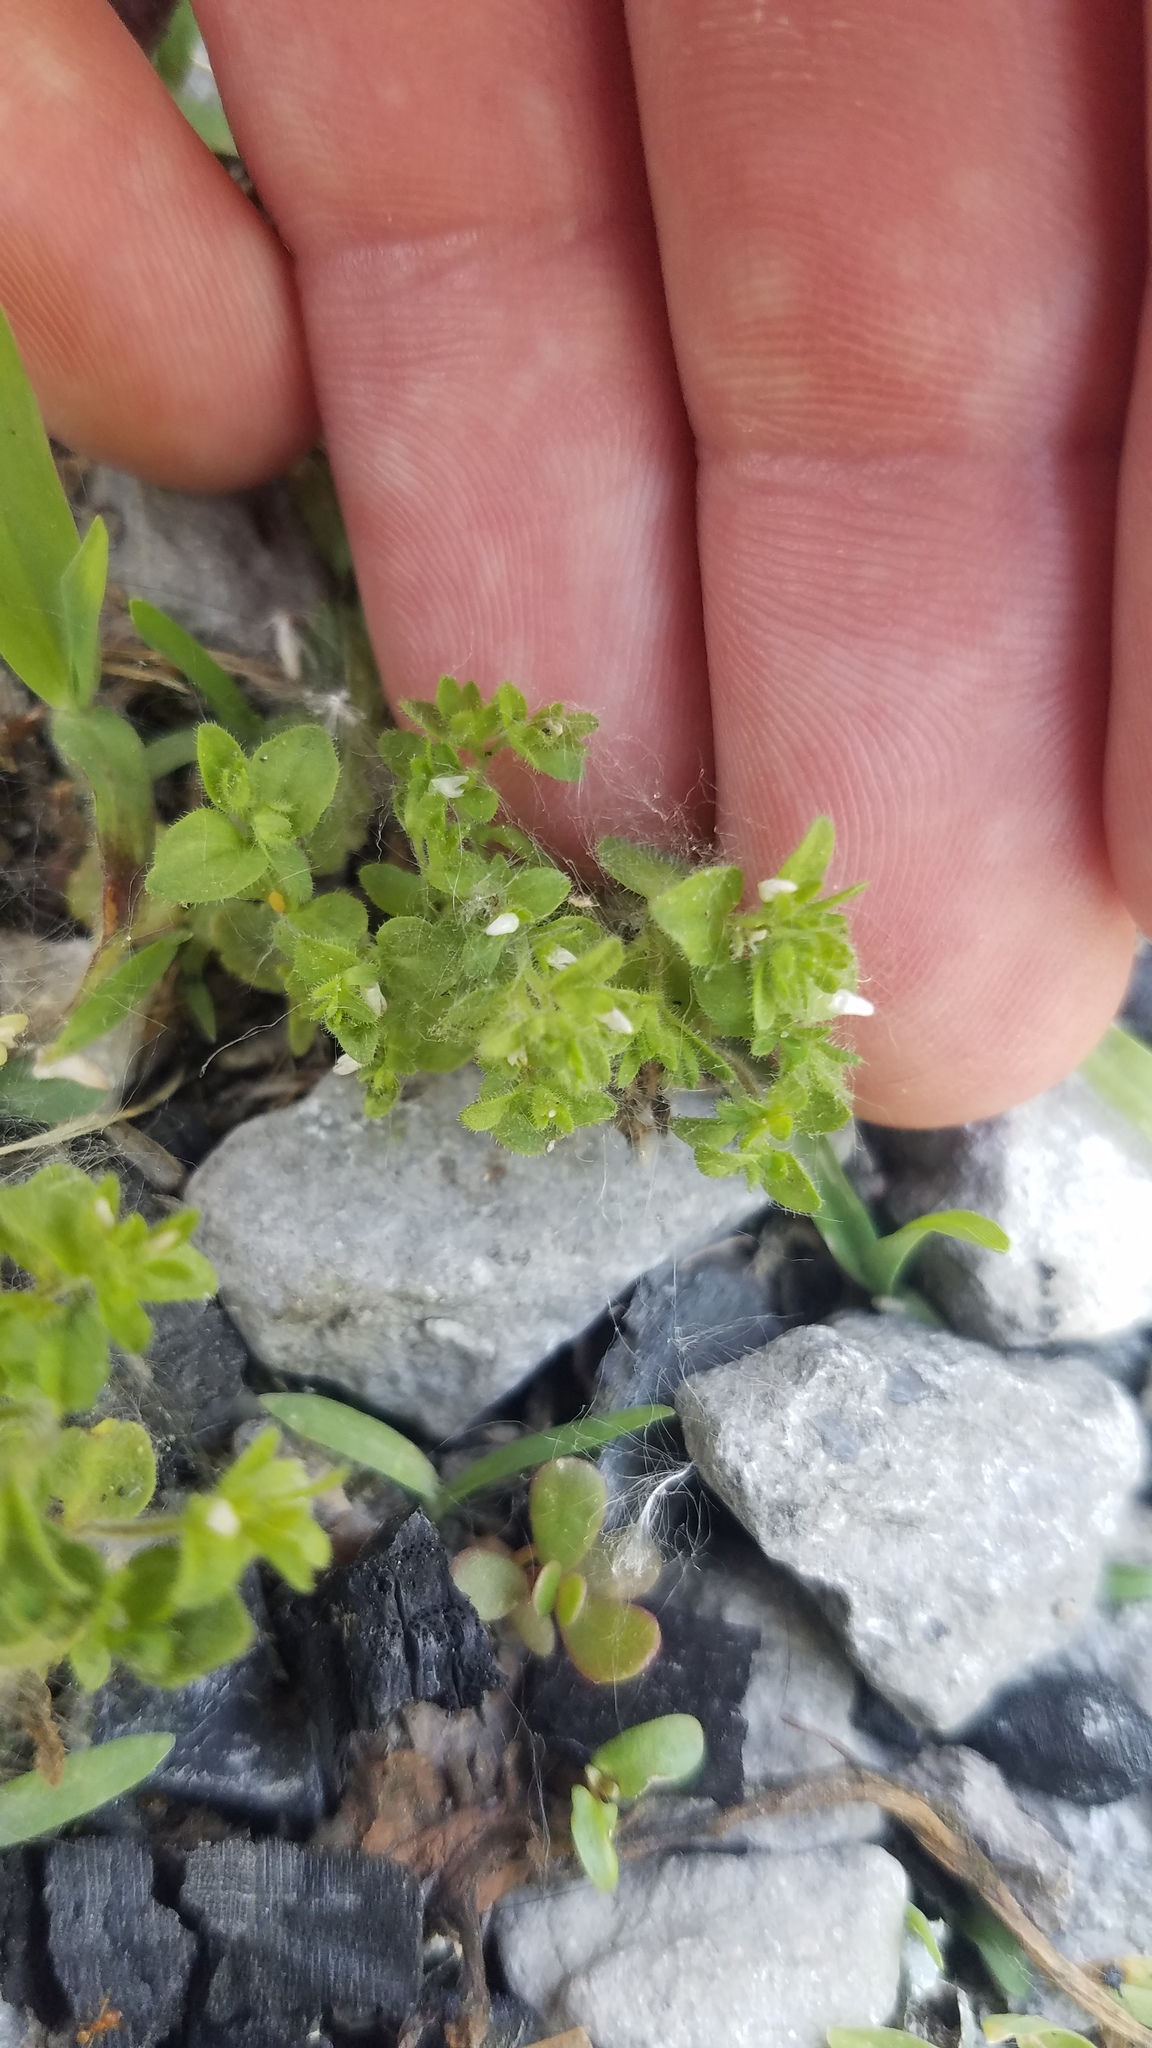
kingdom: Plantae
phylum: Tracheophyta
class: Magnoliopsida
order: Lamiales
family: Plantaginaceae
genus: Veronica
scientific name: Veronica arvensis
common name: Corn speedwell
